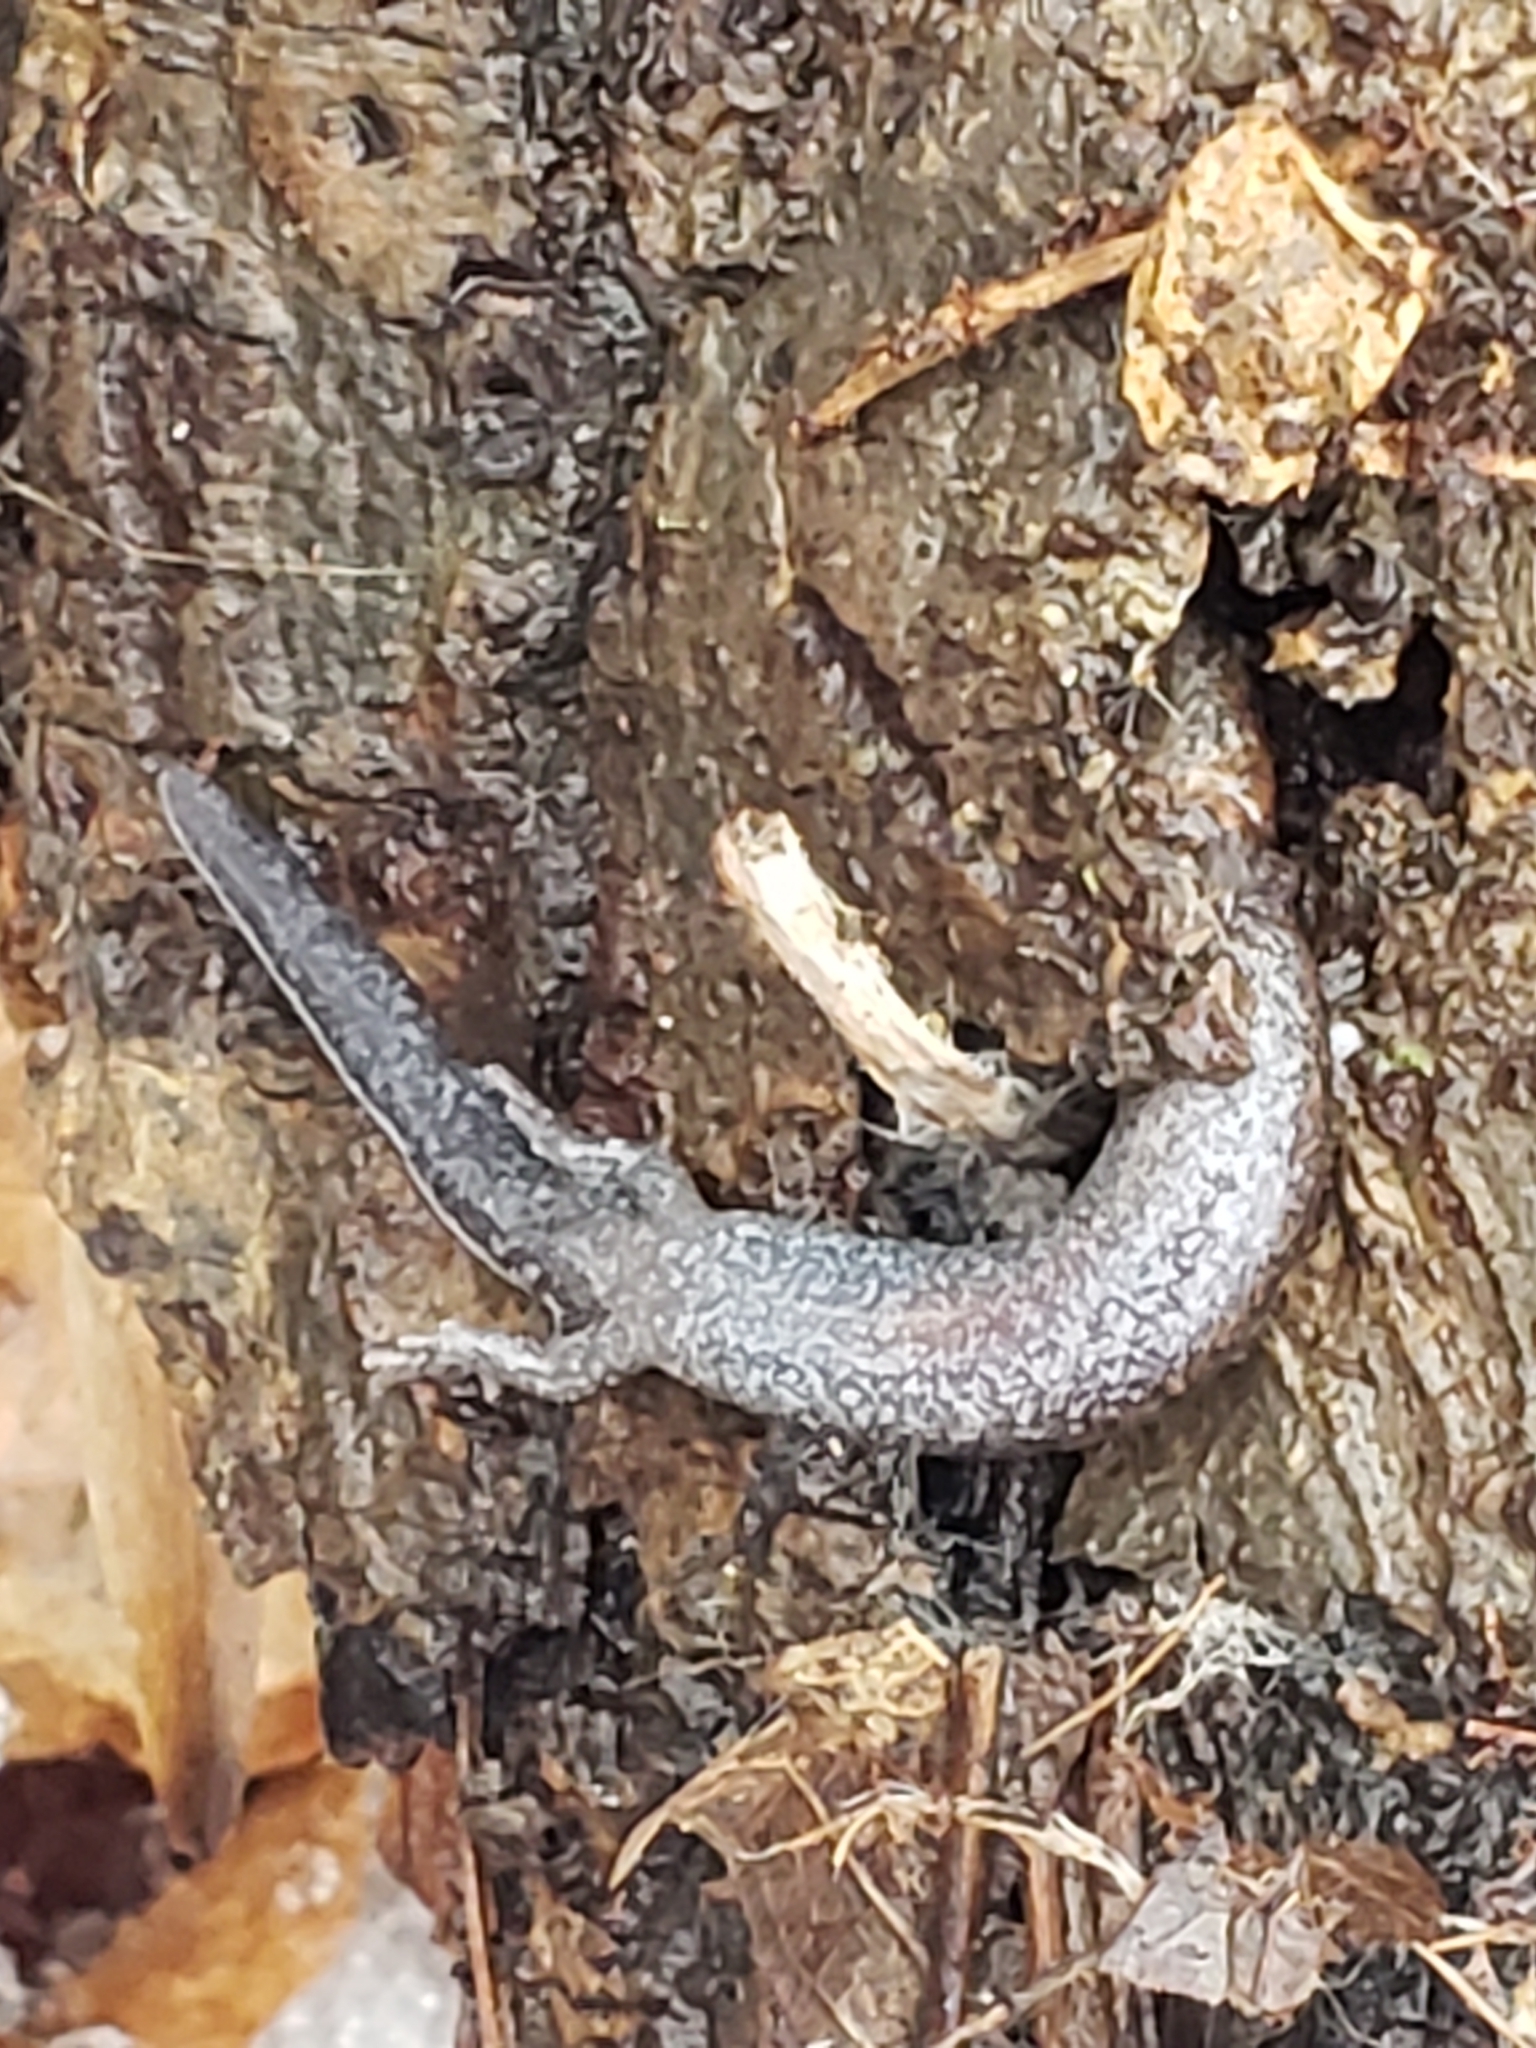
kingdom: Animalia
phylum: Chordata
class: Amphibia
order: Caudata
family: Plethodontidae
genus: Plethodon
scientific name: Plethodon cinereus
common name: Redback salamander
